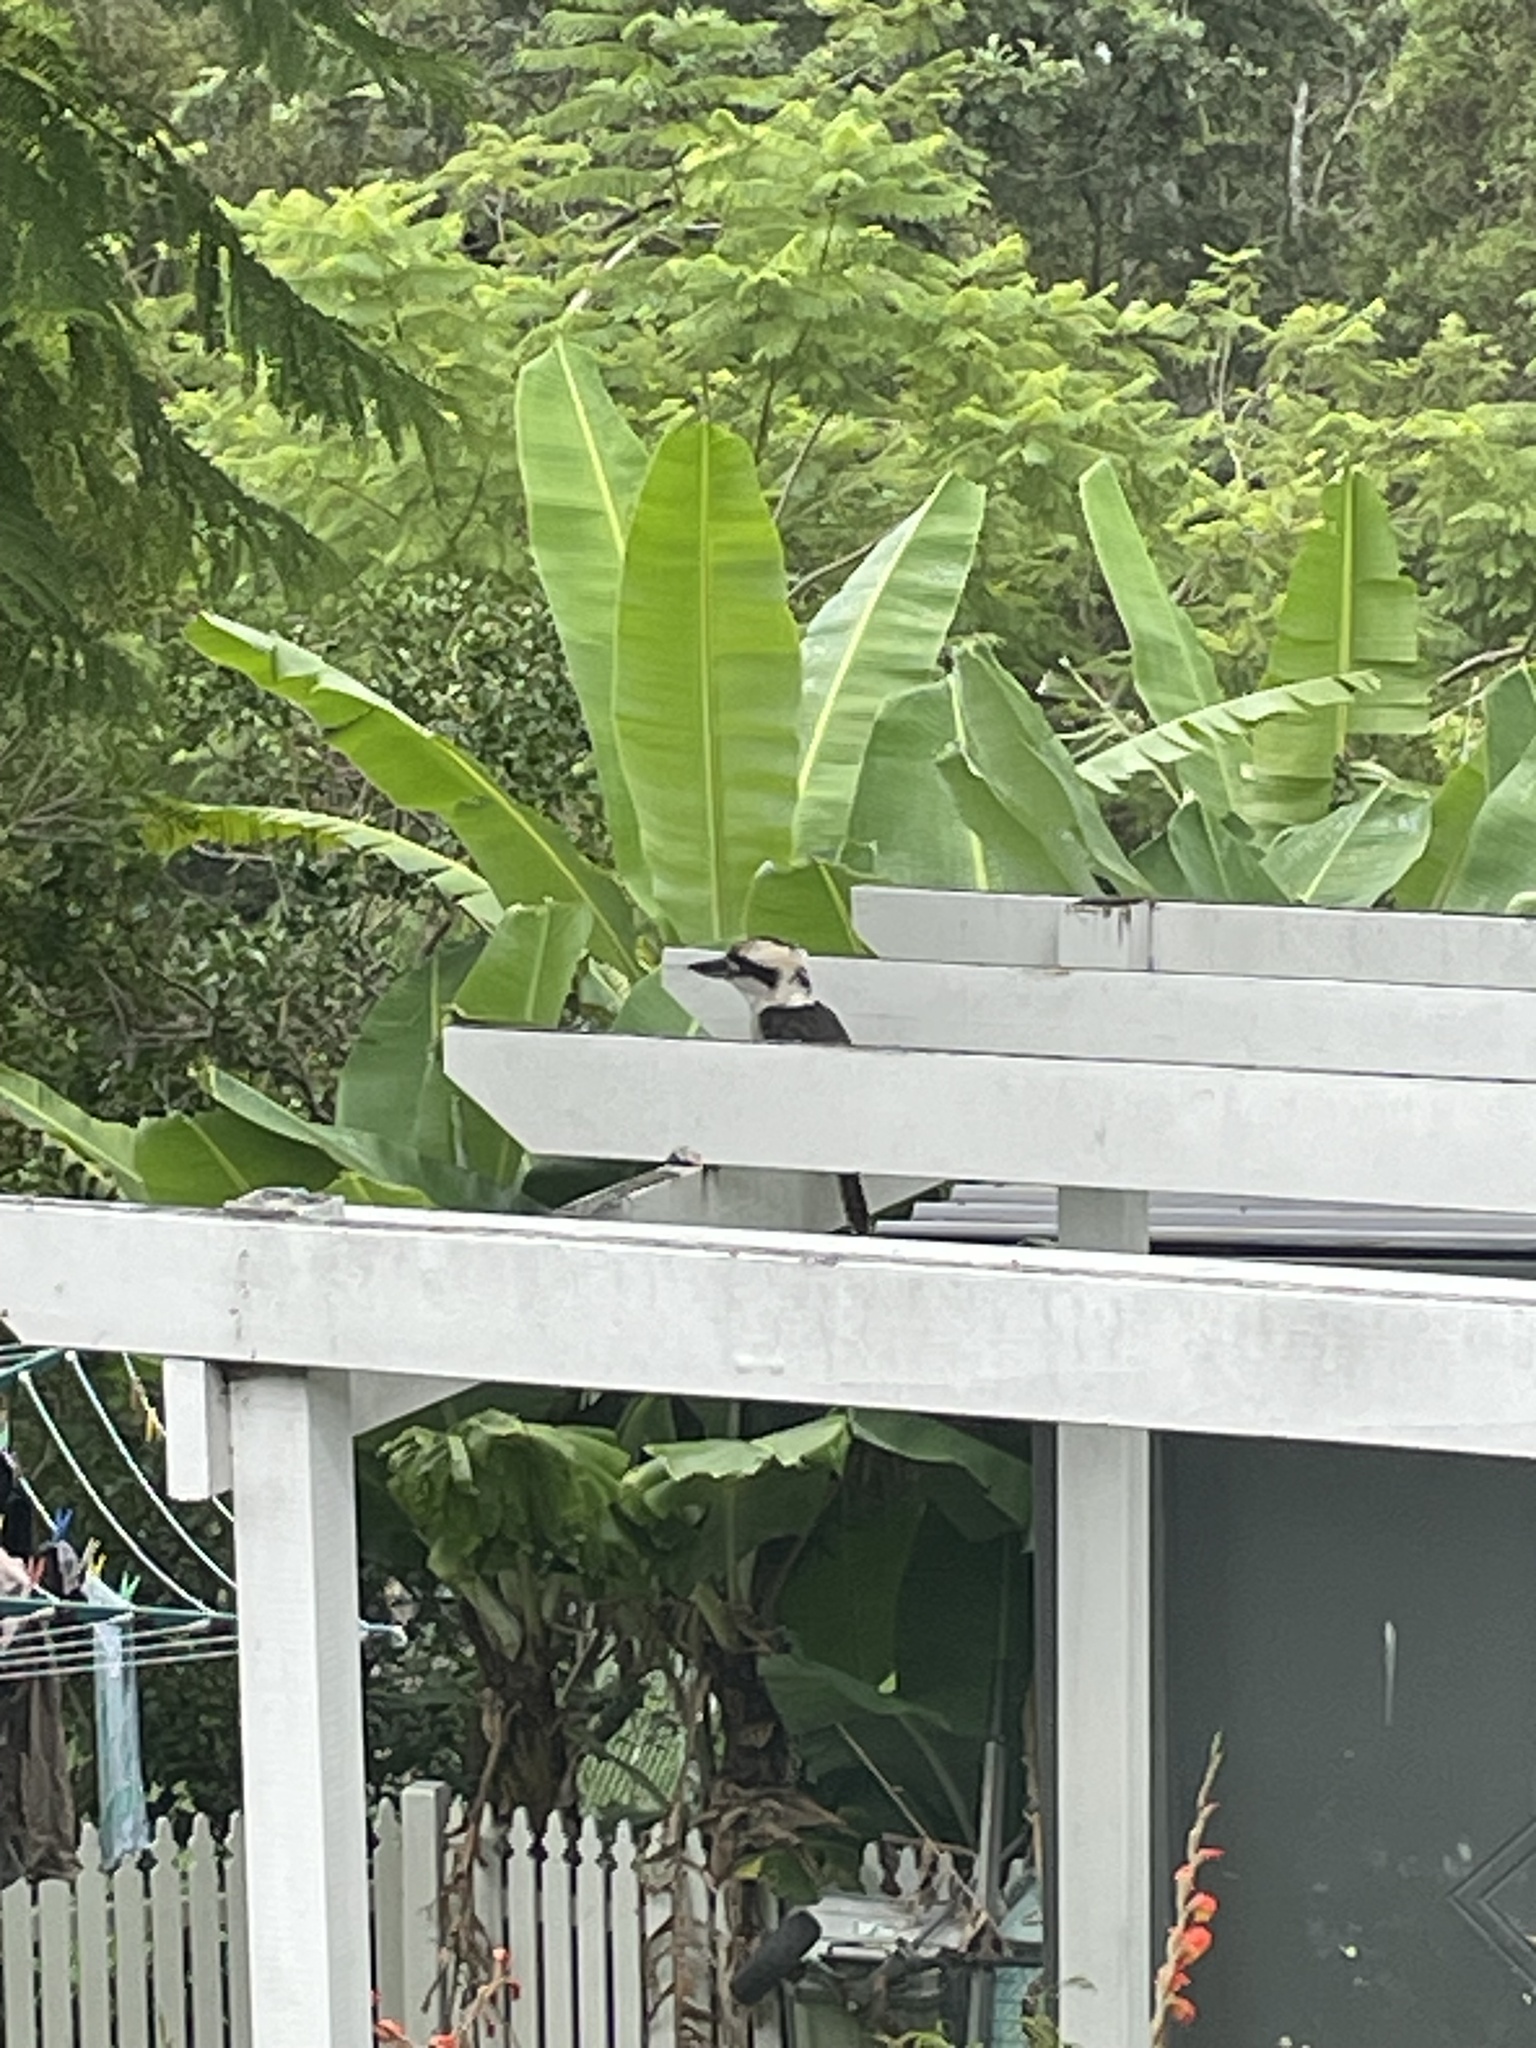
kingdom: Animalia
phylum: Chordata
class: Aves
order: Coraciiformes
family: Alcedinidae
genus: Dacelo
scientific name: Dacelo novaeguineae
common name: Laughing kookaburra
